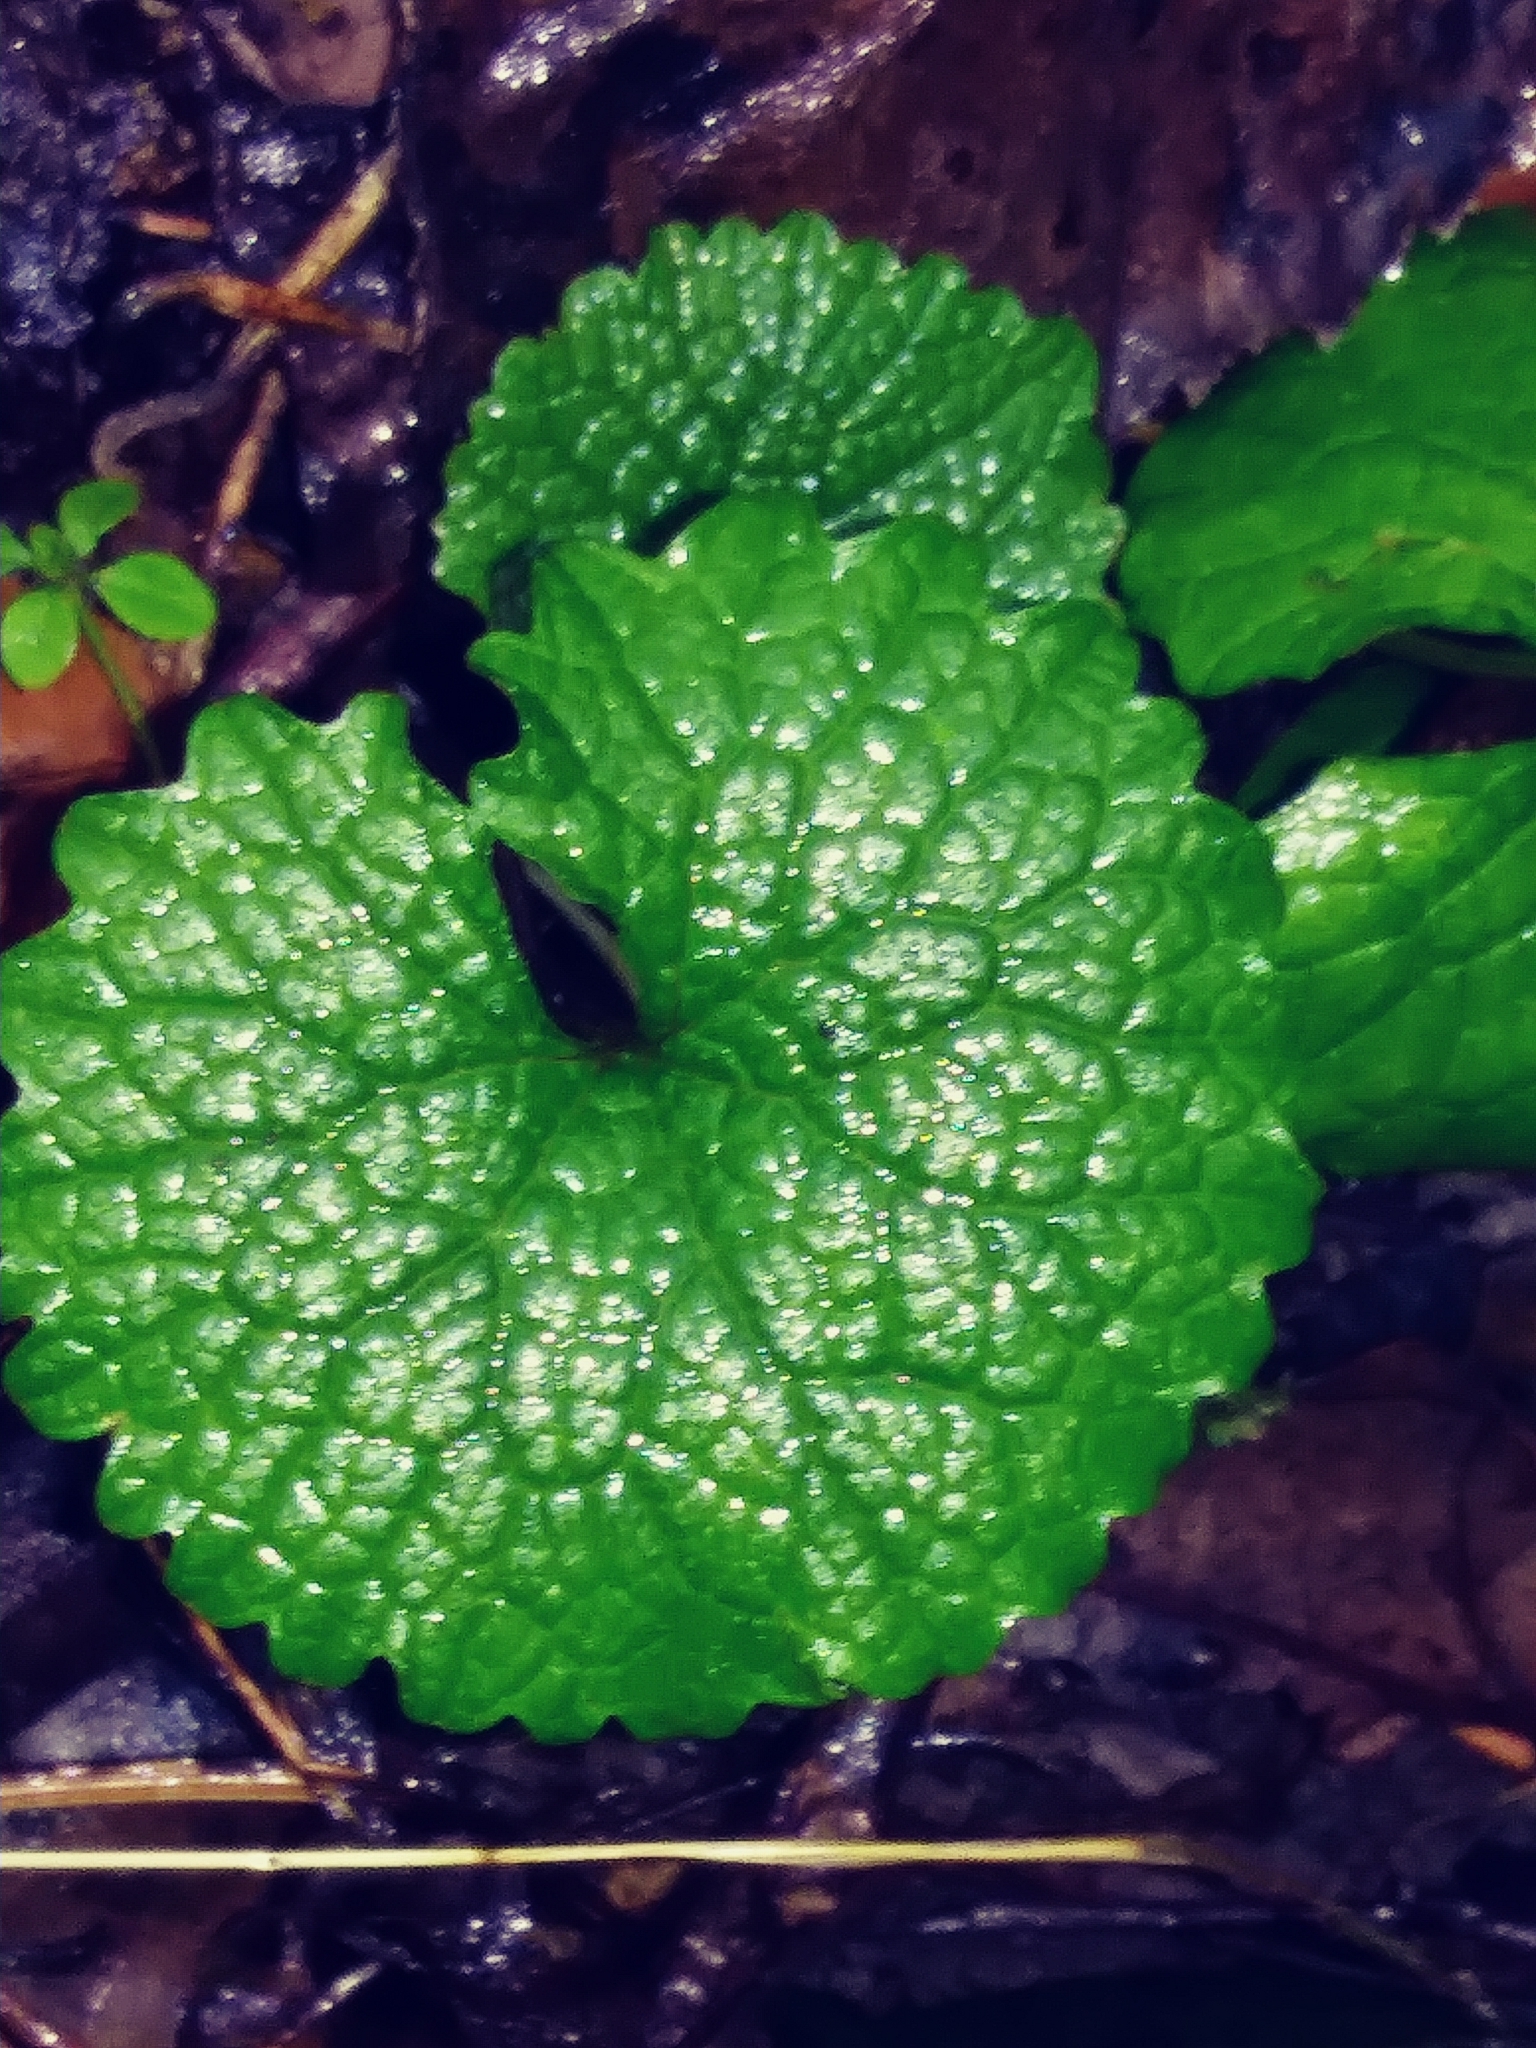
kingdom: Plantae
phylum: Tracheophyta
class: Magnoliopsida
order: Brassicales
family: Brassicaceae
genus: Alliaria
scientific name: Alliaria petiolata
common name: Garlic mustard
